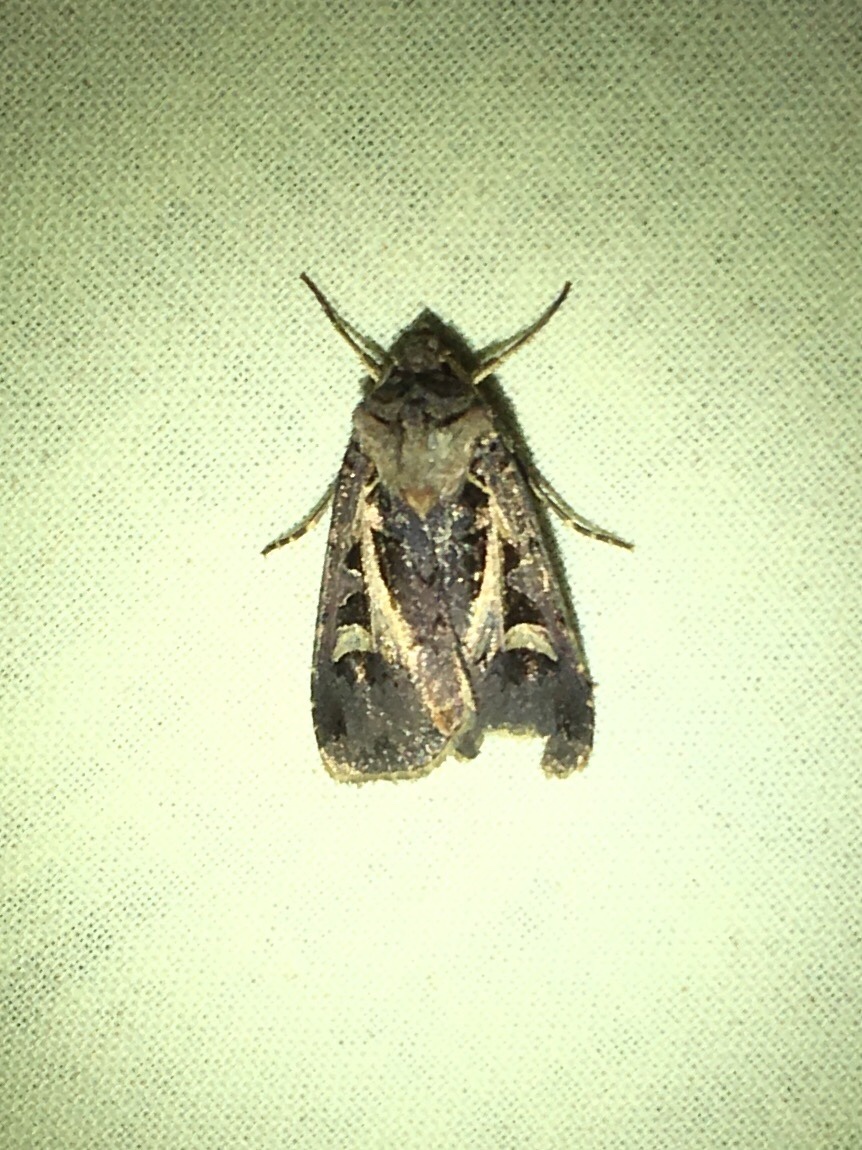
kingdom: Animalia
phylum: Arthropoda
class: Insecta
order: Lepidoptera
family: Noctuidae
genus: Feltia
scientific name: Feltia herilis
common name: Master's dart
